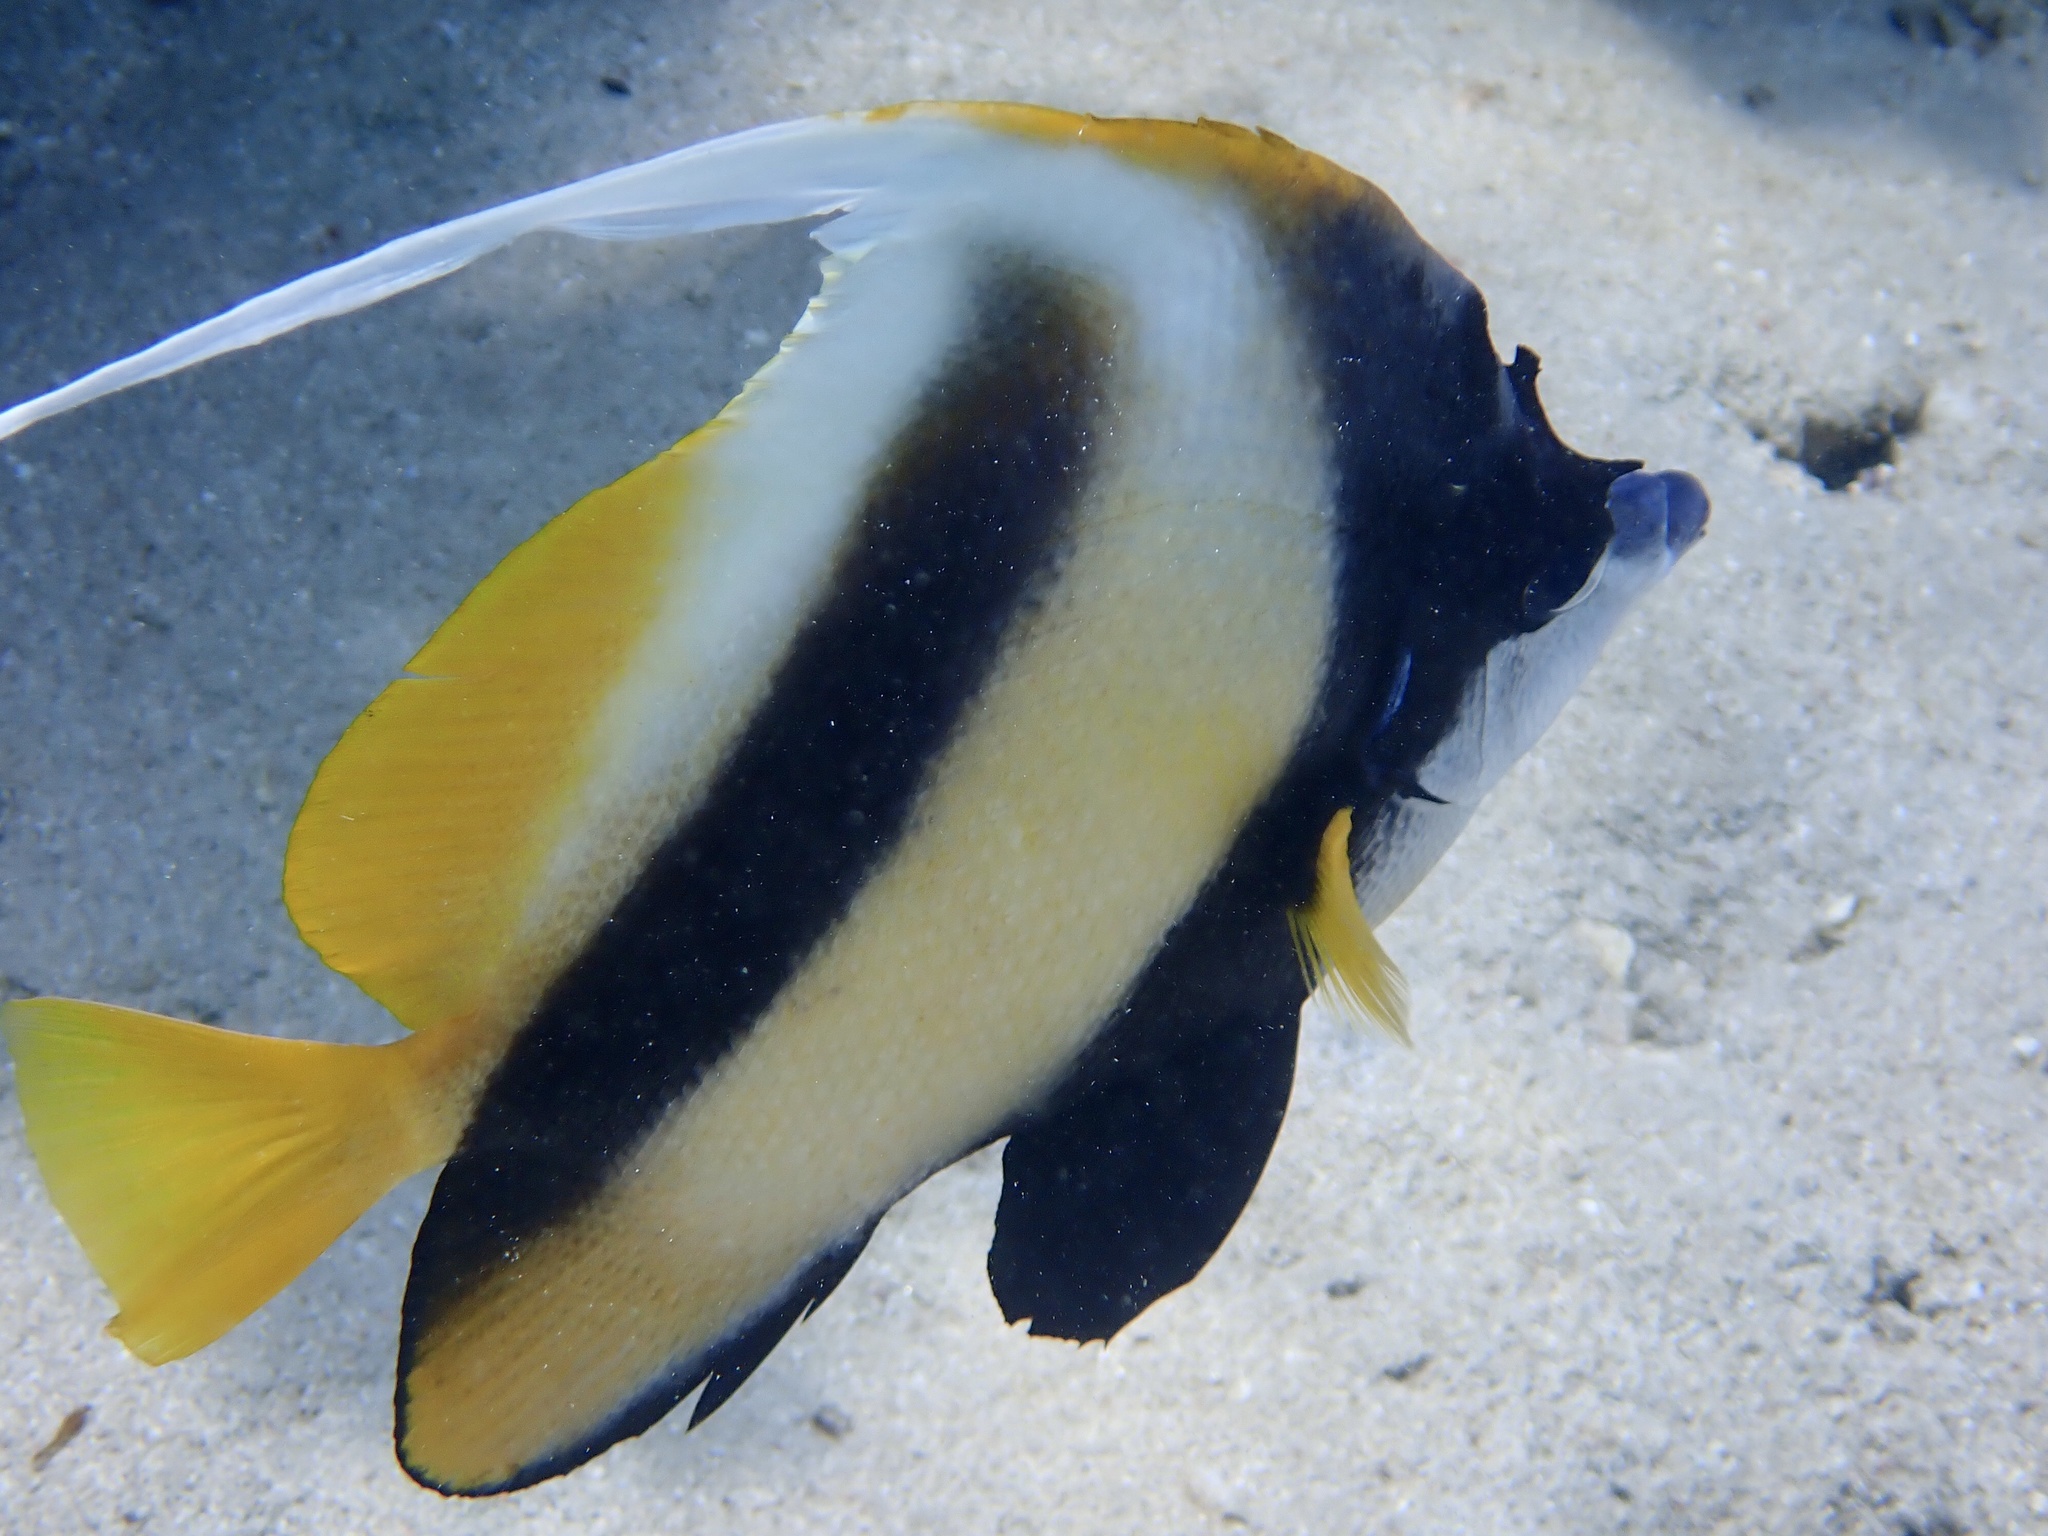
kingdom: Animalia
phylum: Chordata
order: Perciformes
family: Chaetodontidae
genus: Heniochus
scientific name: Heniochus intermedius
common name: Red sea bannerfish
